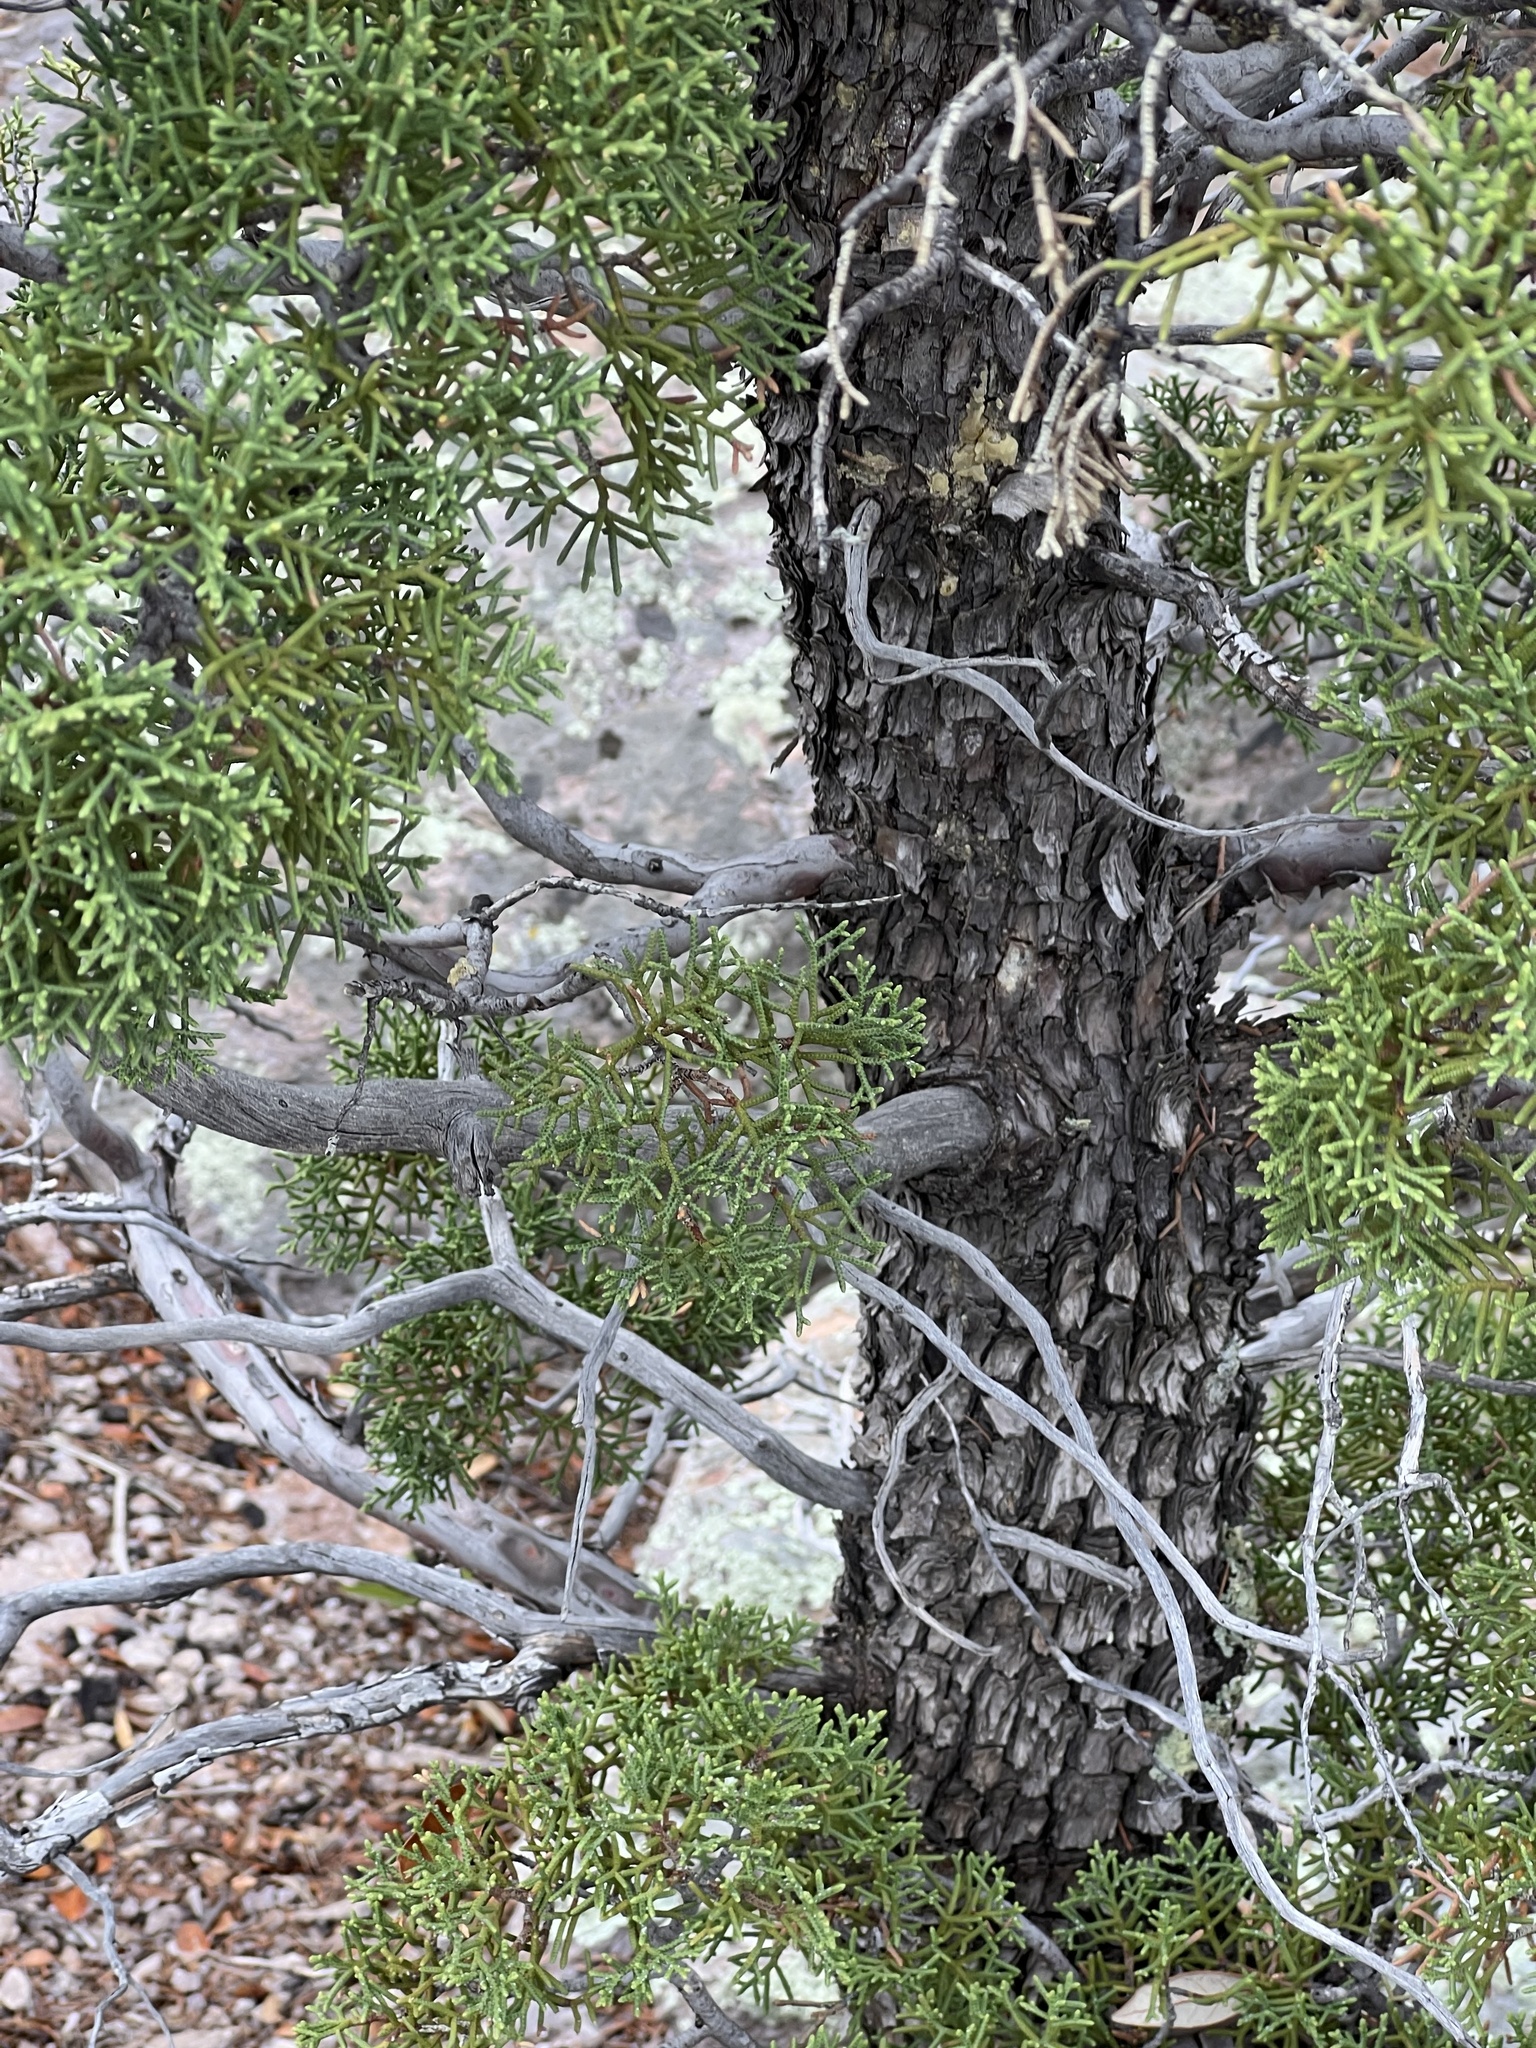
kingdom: Plantae
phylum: Tracheophyta
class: Pinopsida
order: Pinales
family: Cupressaceae
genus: Cupressus
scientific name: Cupressus arizonica
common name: Arizona cypress
